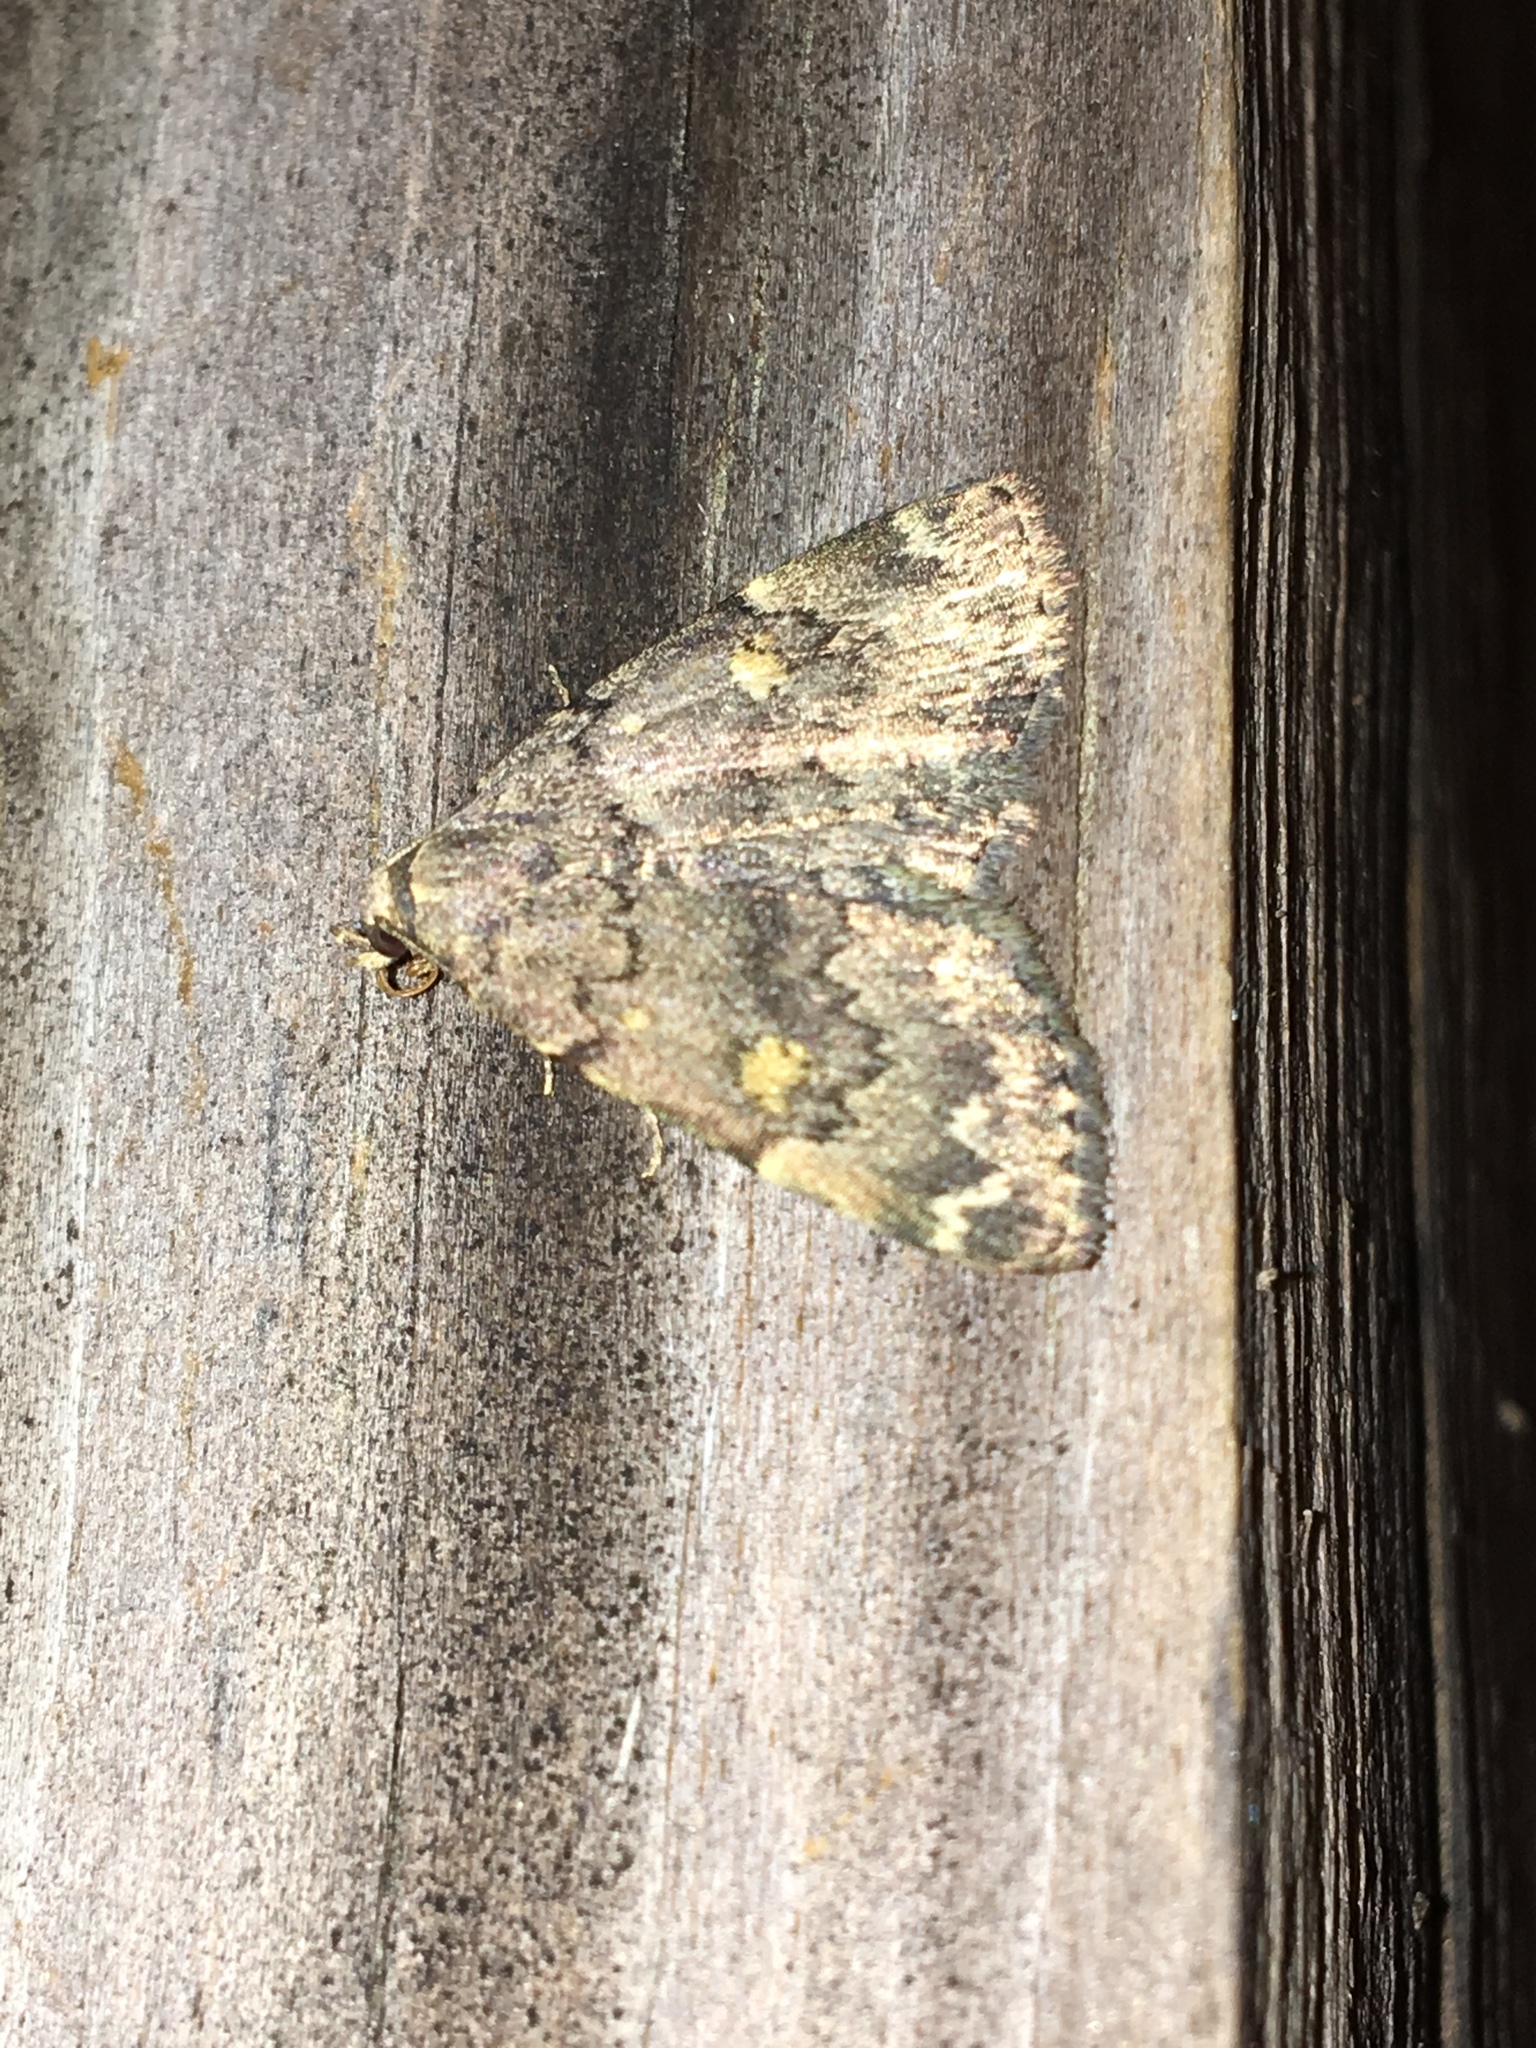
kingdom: Animalia
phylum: Arthropoda
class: Insecta
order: Lepidoptera
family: Erebidae
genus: Idia
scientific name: Idia aemula
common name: Common idia moth
